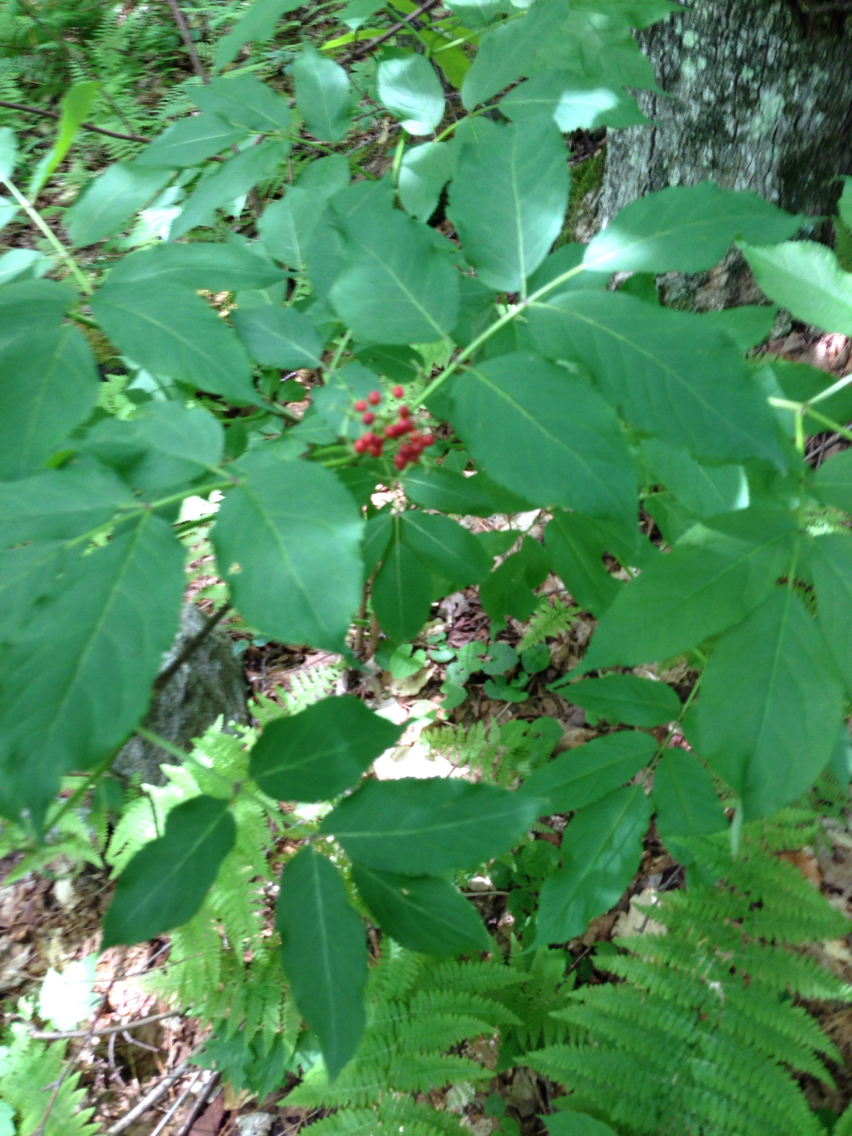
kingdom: Plantae
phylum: Tracheophyta
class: Magnoliopsida
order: Dipsacales
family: Viburnaceae
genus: Sambucus
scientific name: Sambucus racemosa
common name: Red-berried elder
